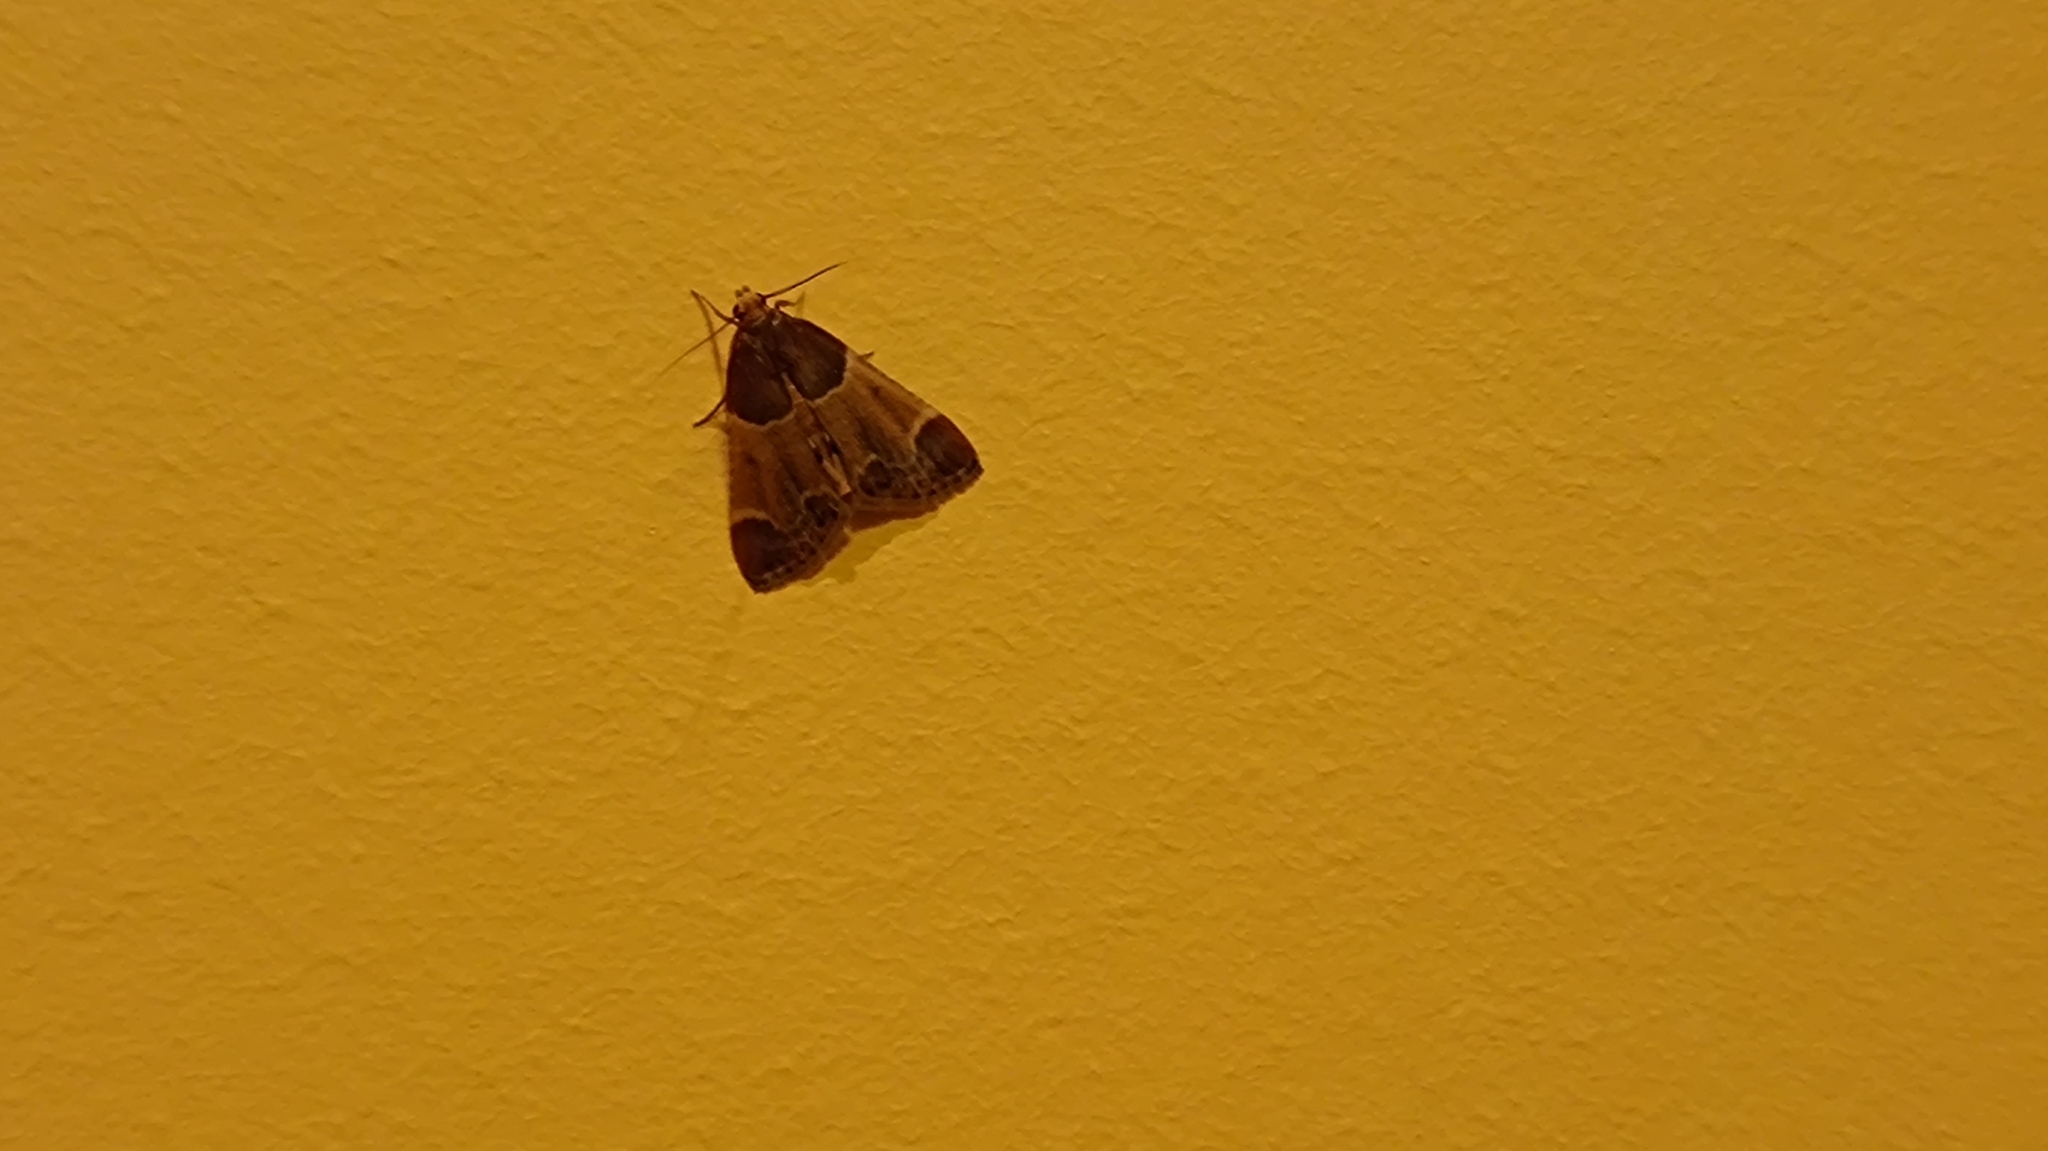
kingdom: Animalia
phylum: Arthropoda
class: Insecta
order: Lepidoptera
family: Pyralidae
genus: Pyralis
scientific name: Pyralis farinalis
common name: Meal moth
